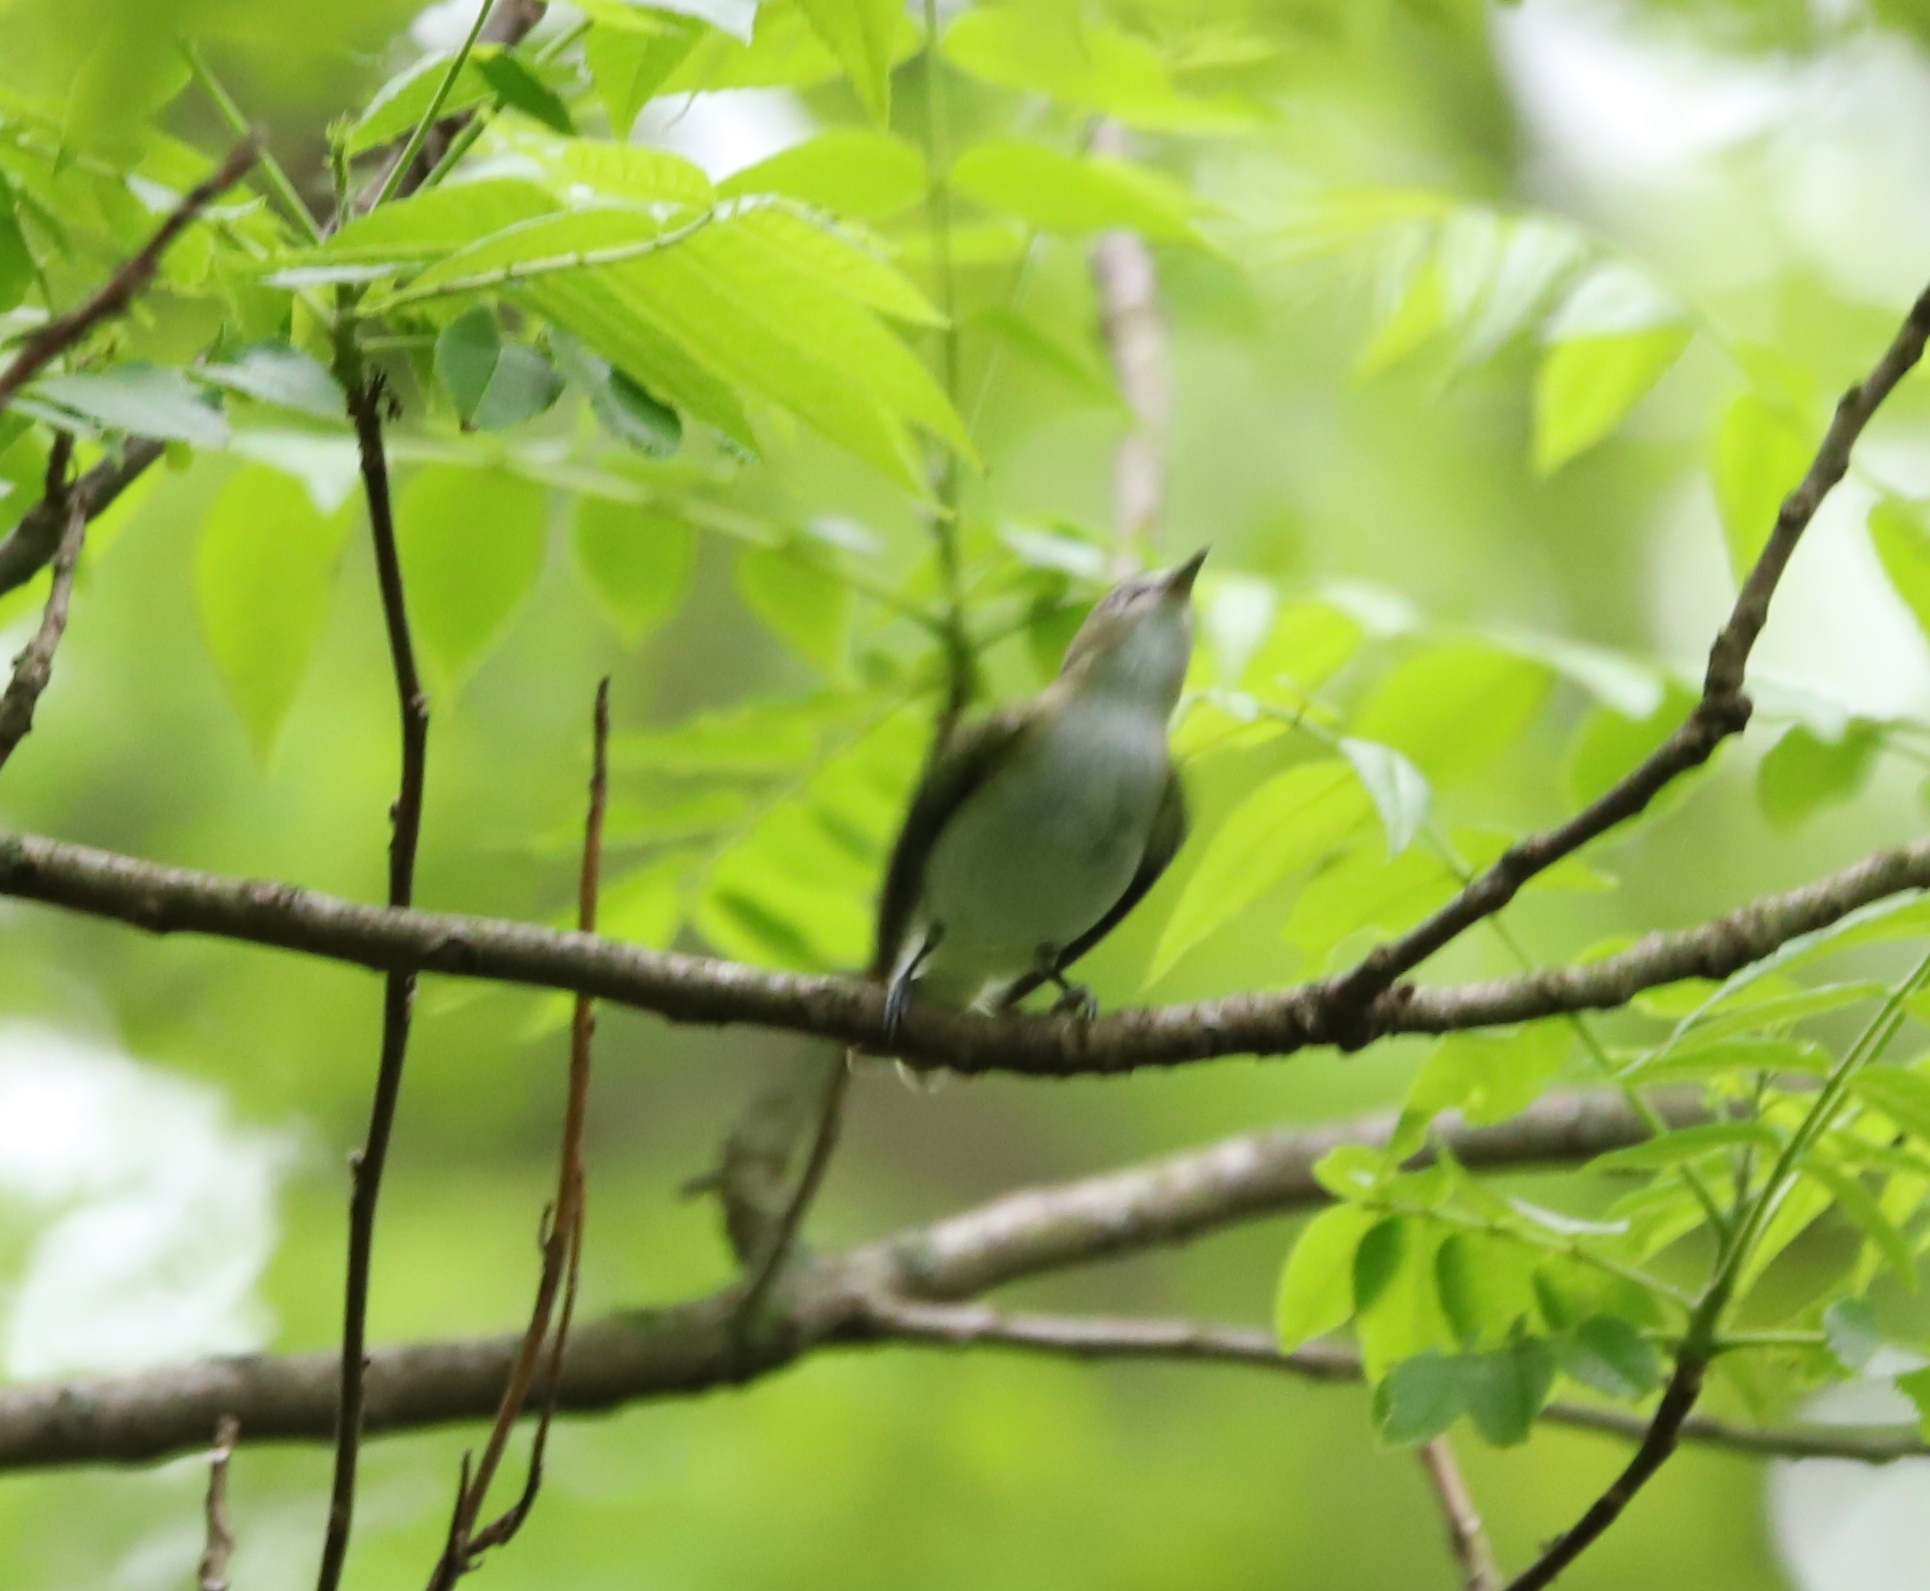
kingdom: Animalia
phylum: Chordata
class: Aves
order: Passeriformes
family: Vireonidae
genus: Vireo
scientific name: Vireo olivaceus
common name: Red-eyed vireo
